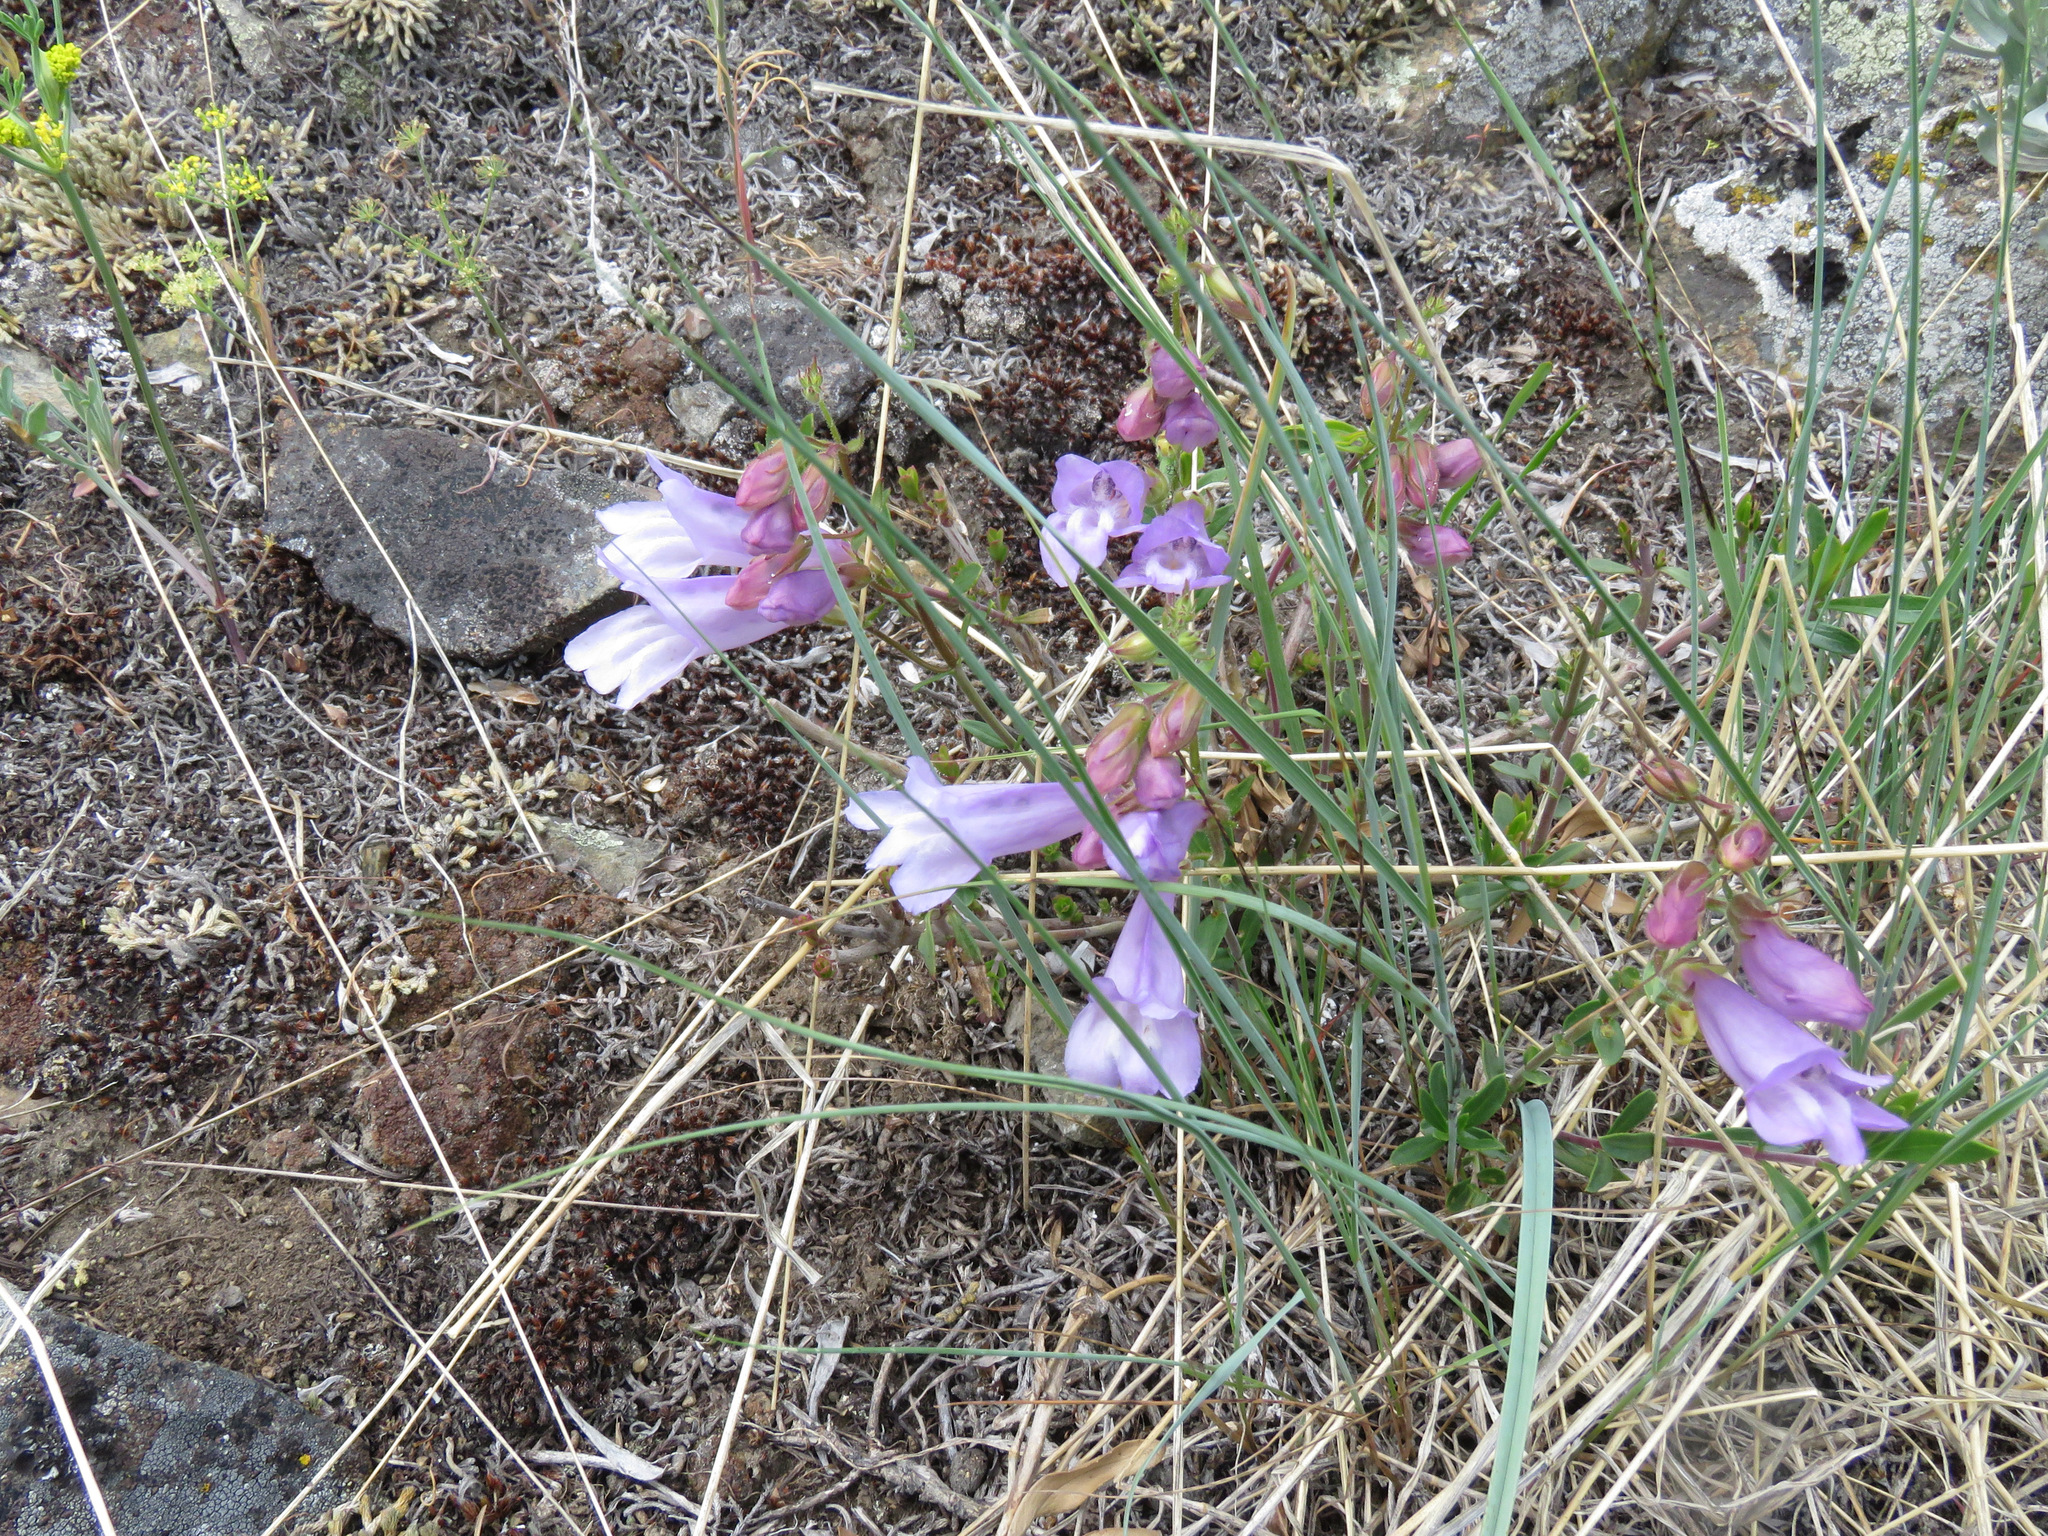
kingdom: Plantae
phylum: Tracheophyta
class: Magnoliopsida
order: Lamiales
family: Plantaginaceae
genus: Penstemon
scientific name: Penstemon fruticosus
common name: Bush penstemon
